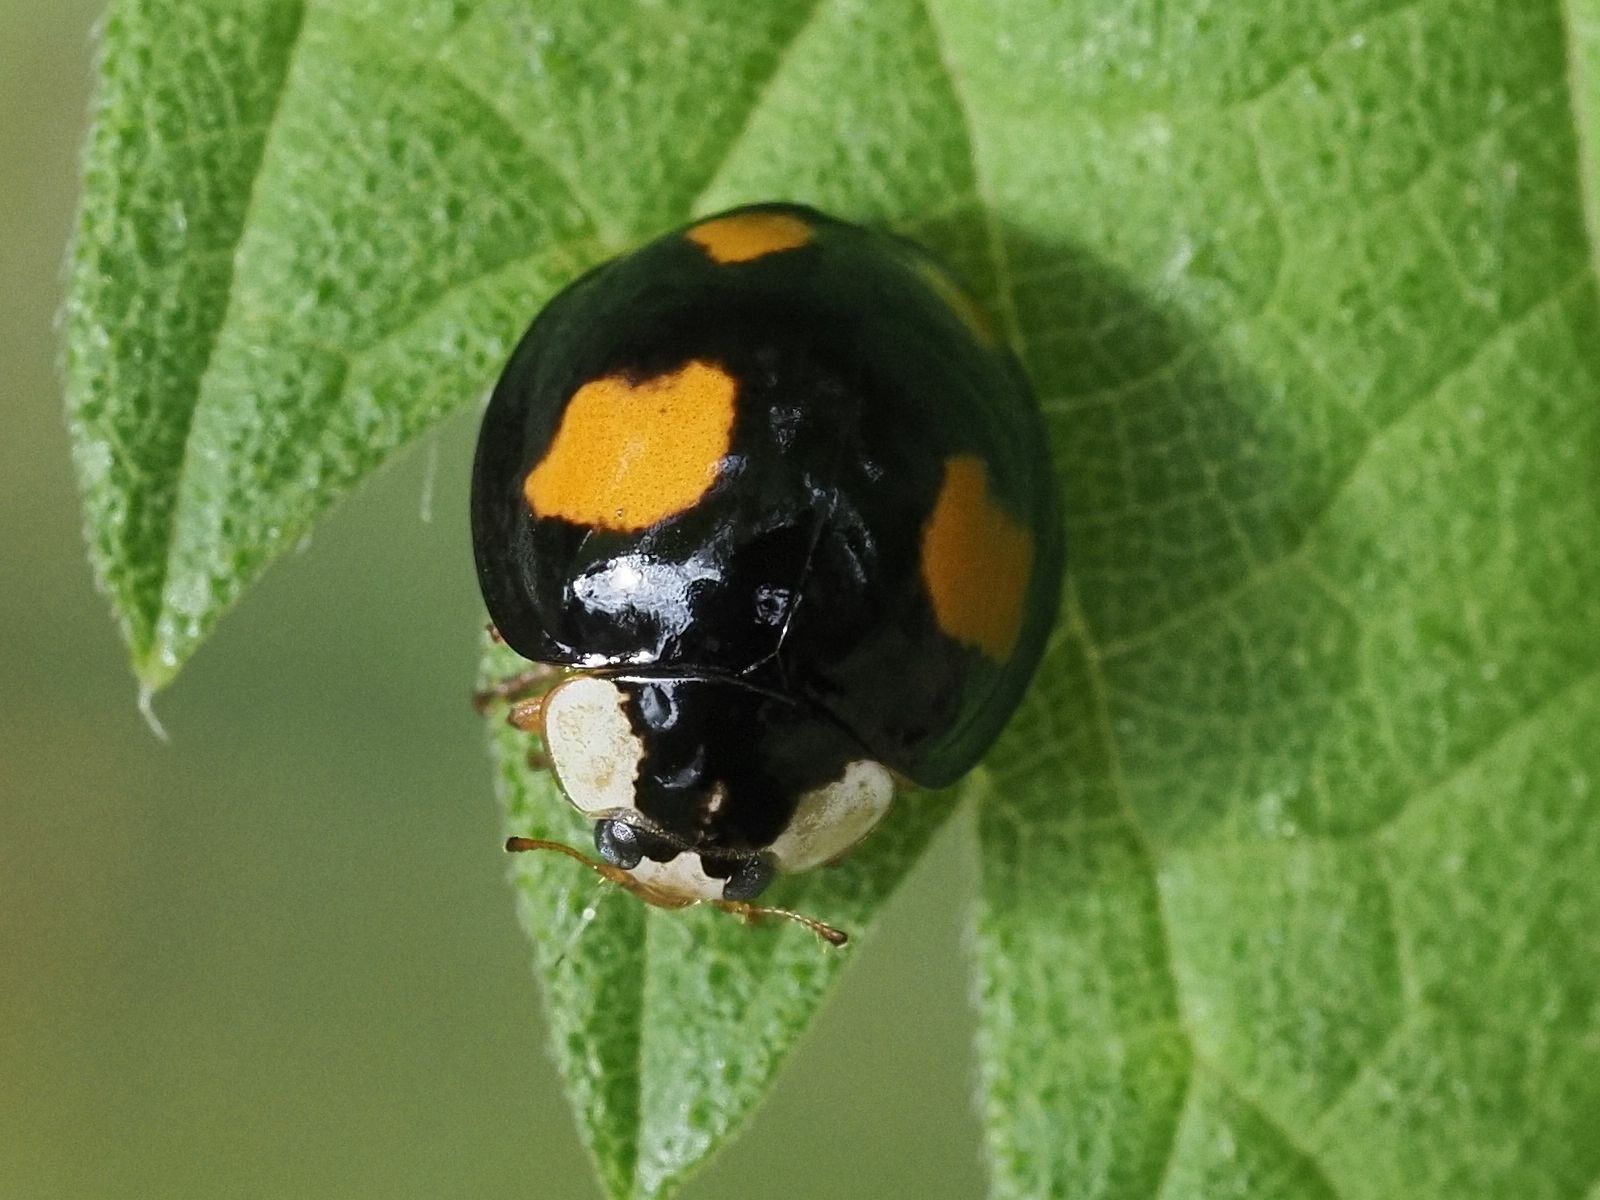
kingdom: Animalia
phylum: Arthropoda
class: Insecta
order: Coleoptera
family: Coccinellidae
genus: Harmonia
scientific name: Harmonia axyridis
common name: Harlequin ladybird
